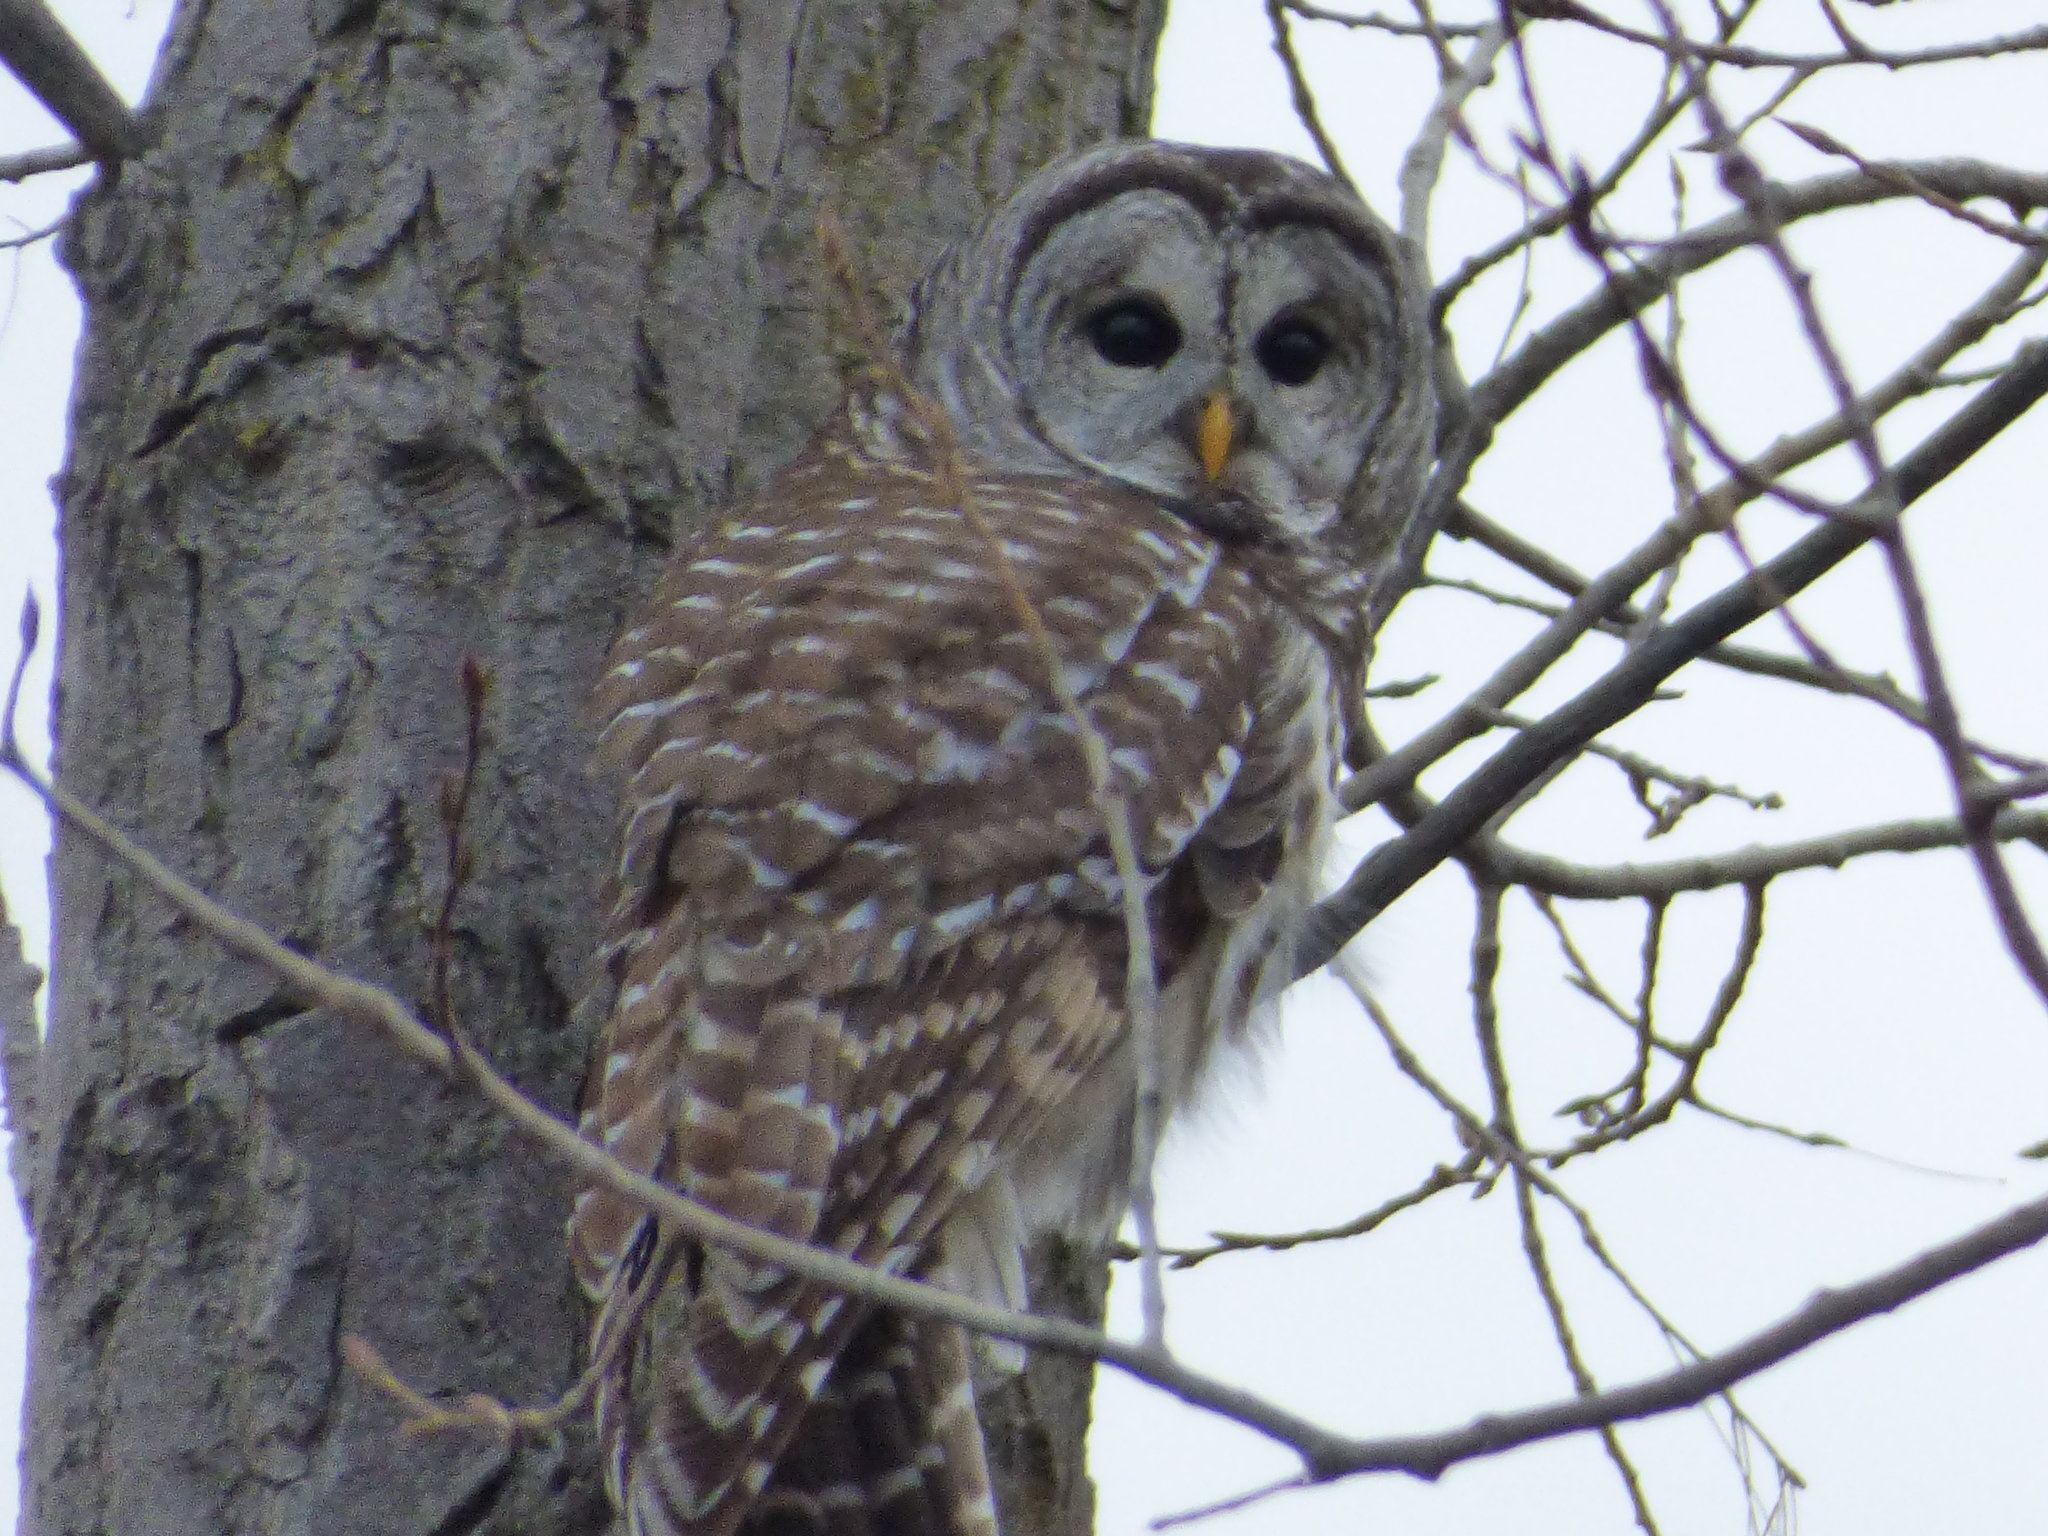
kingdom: Animalia
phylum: Chordata
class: Aves
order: Strigiformes
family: Strigidae
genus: Strix
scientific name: Strix varia
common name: Barred owl
